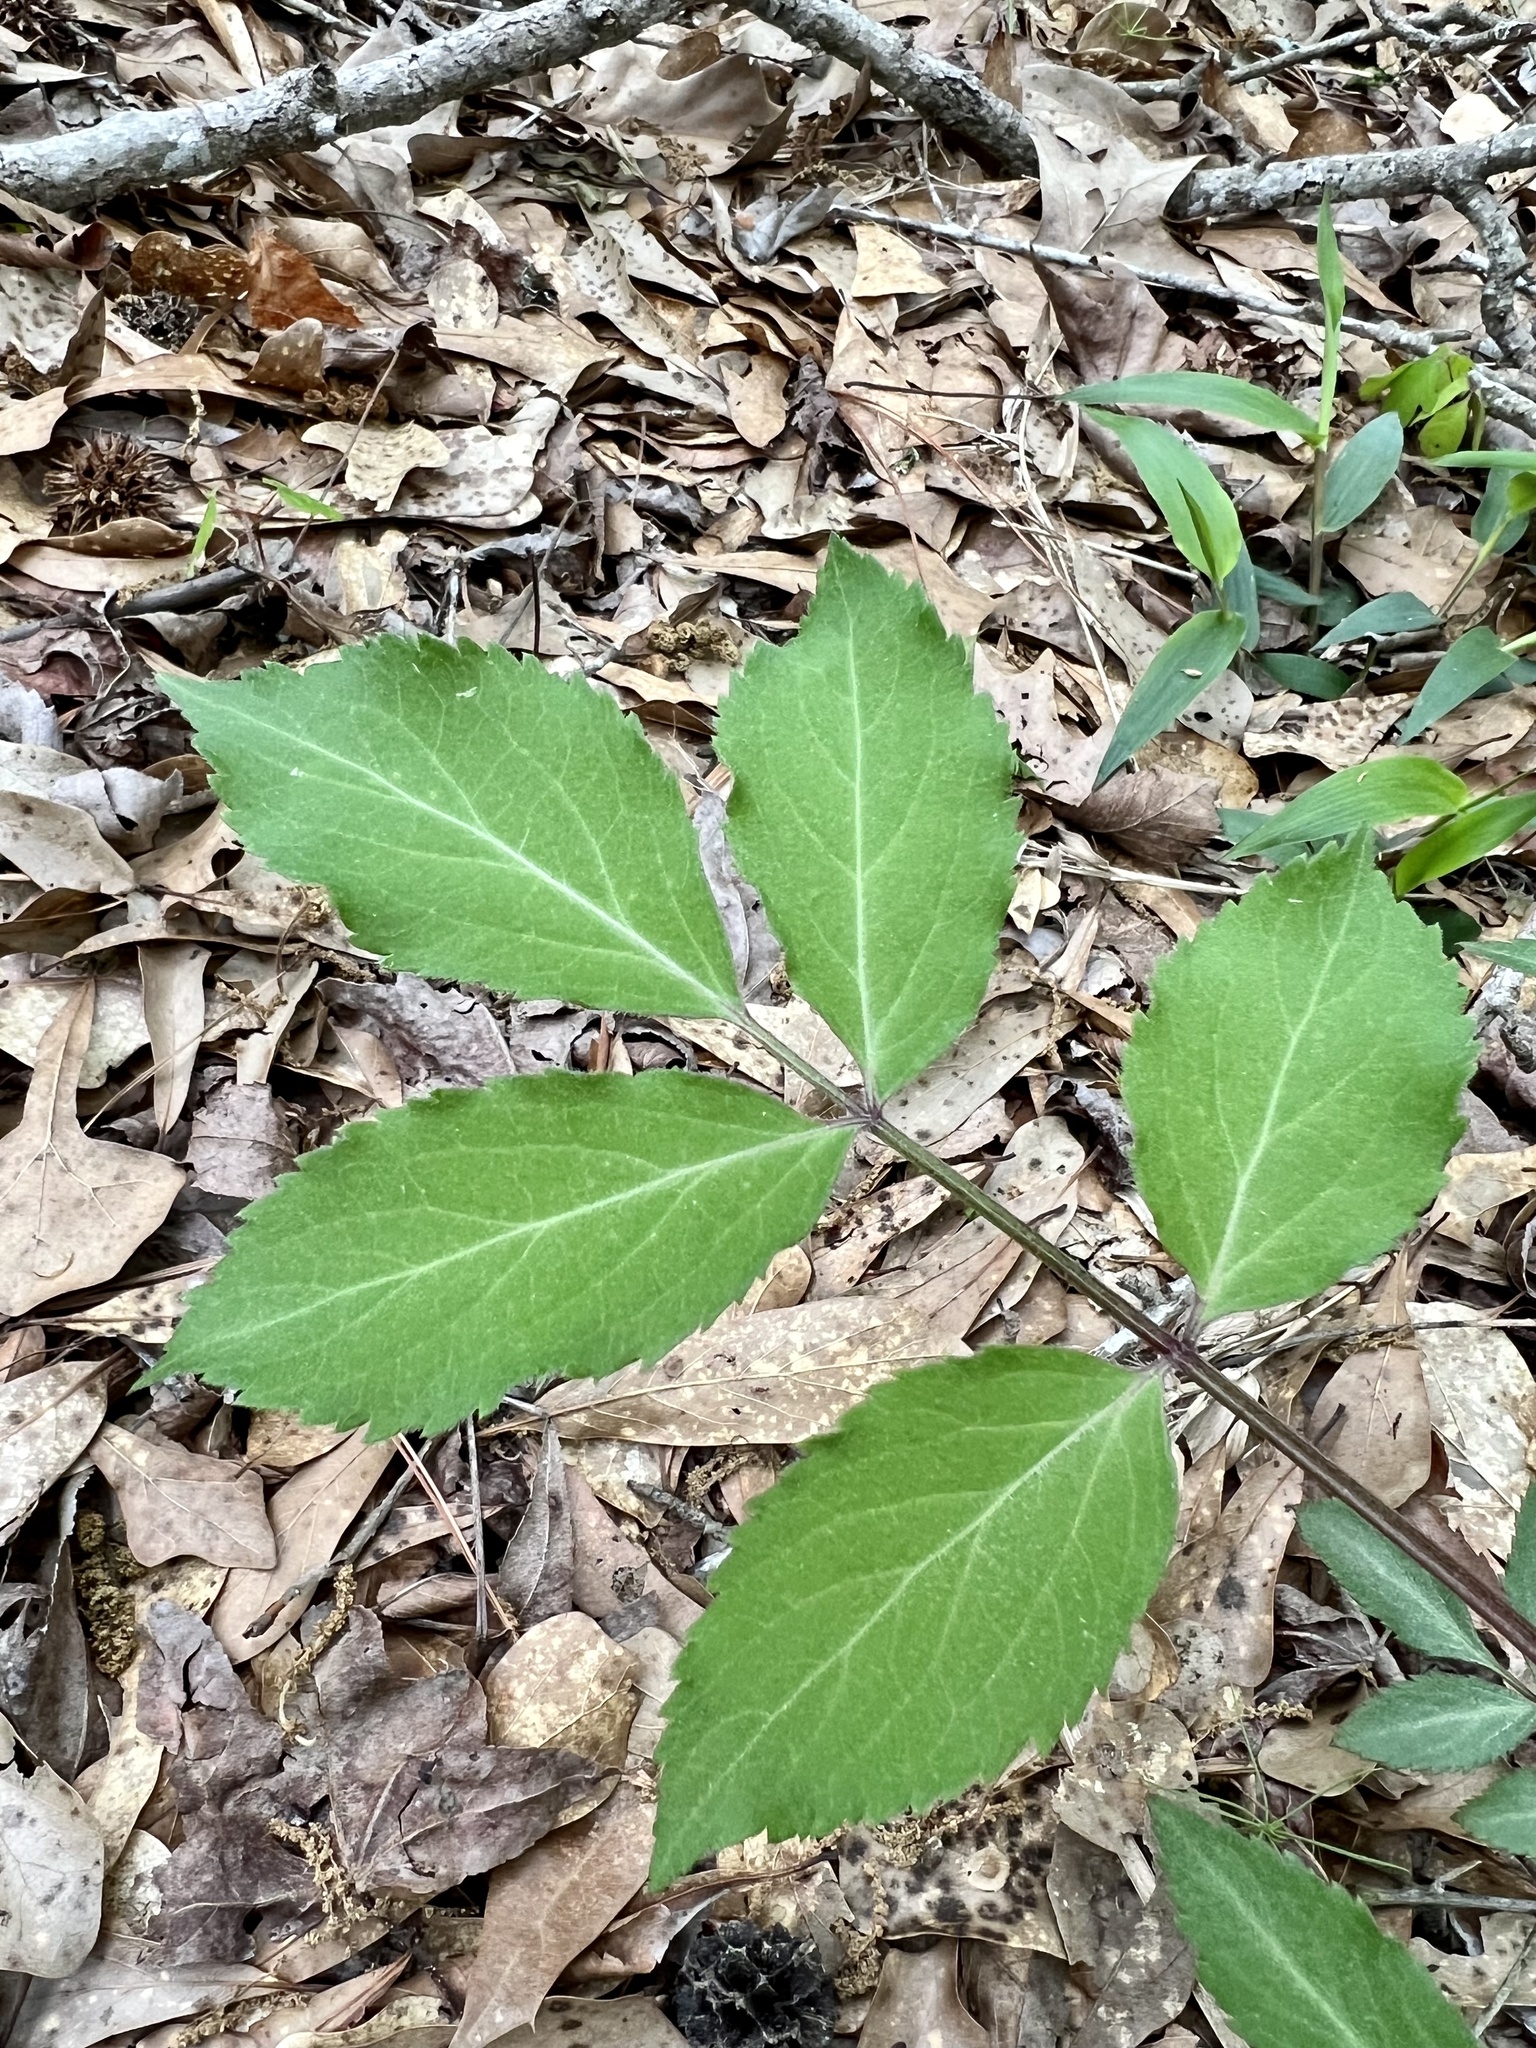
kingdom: Plantae
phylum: Tracheophyta
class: Magnoliopsida
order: Dipsacales
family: Viburnaceae
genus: Sambucus
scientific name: Sambucus canadensis
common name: American elder
